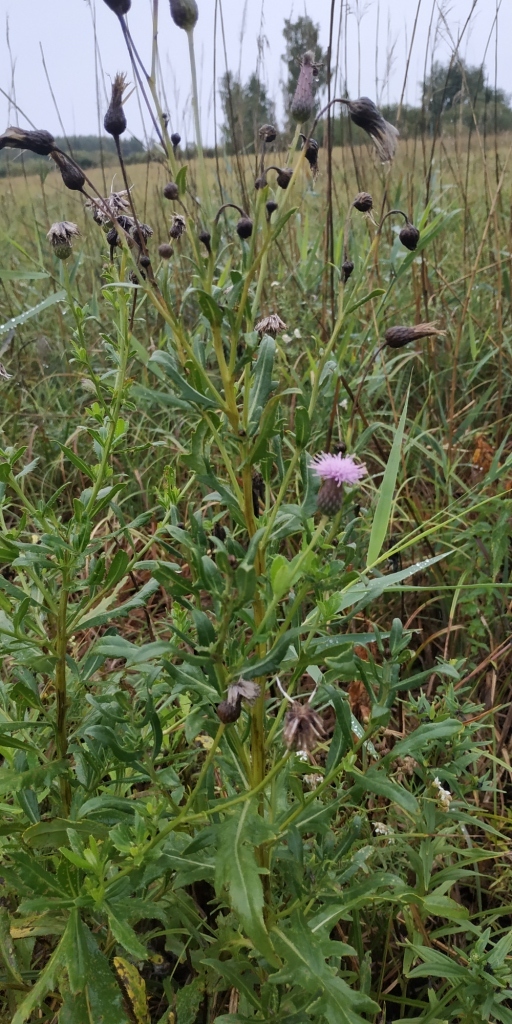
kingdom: Plantae
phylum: Tracheophyta
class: Magnoliopsida
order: Asterales
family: Asteraceae
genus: Cirsium
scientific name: Cirsium arvense
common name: Creeping thistle
